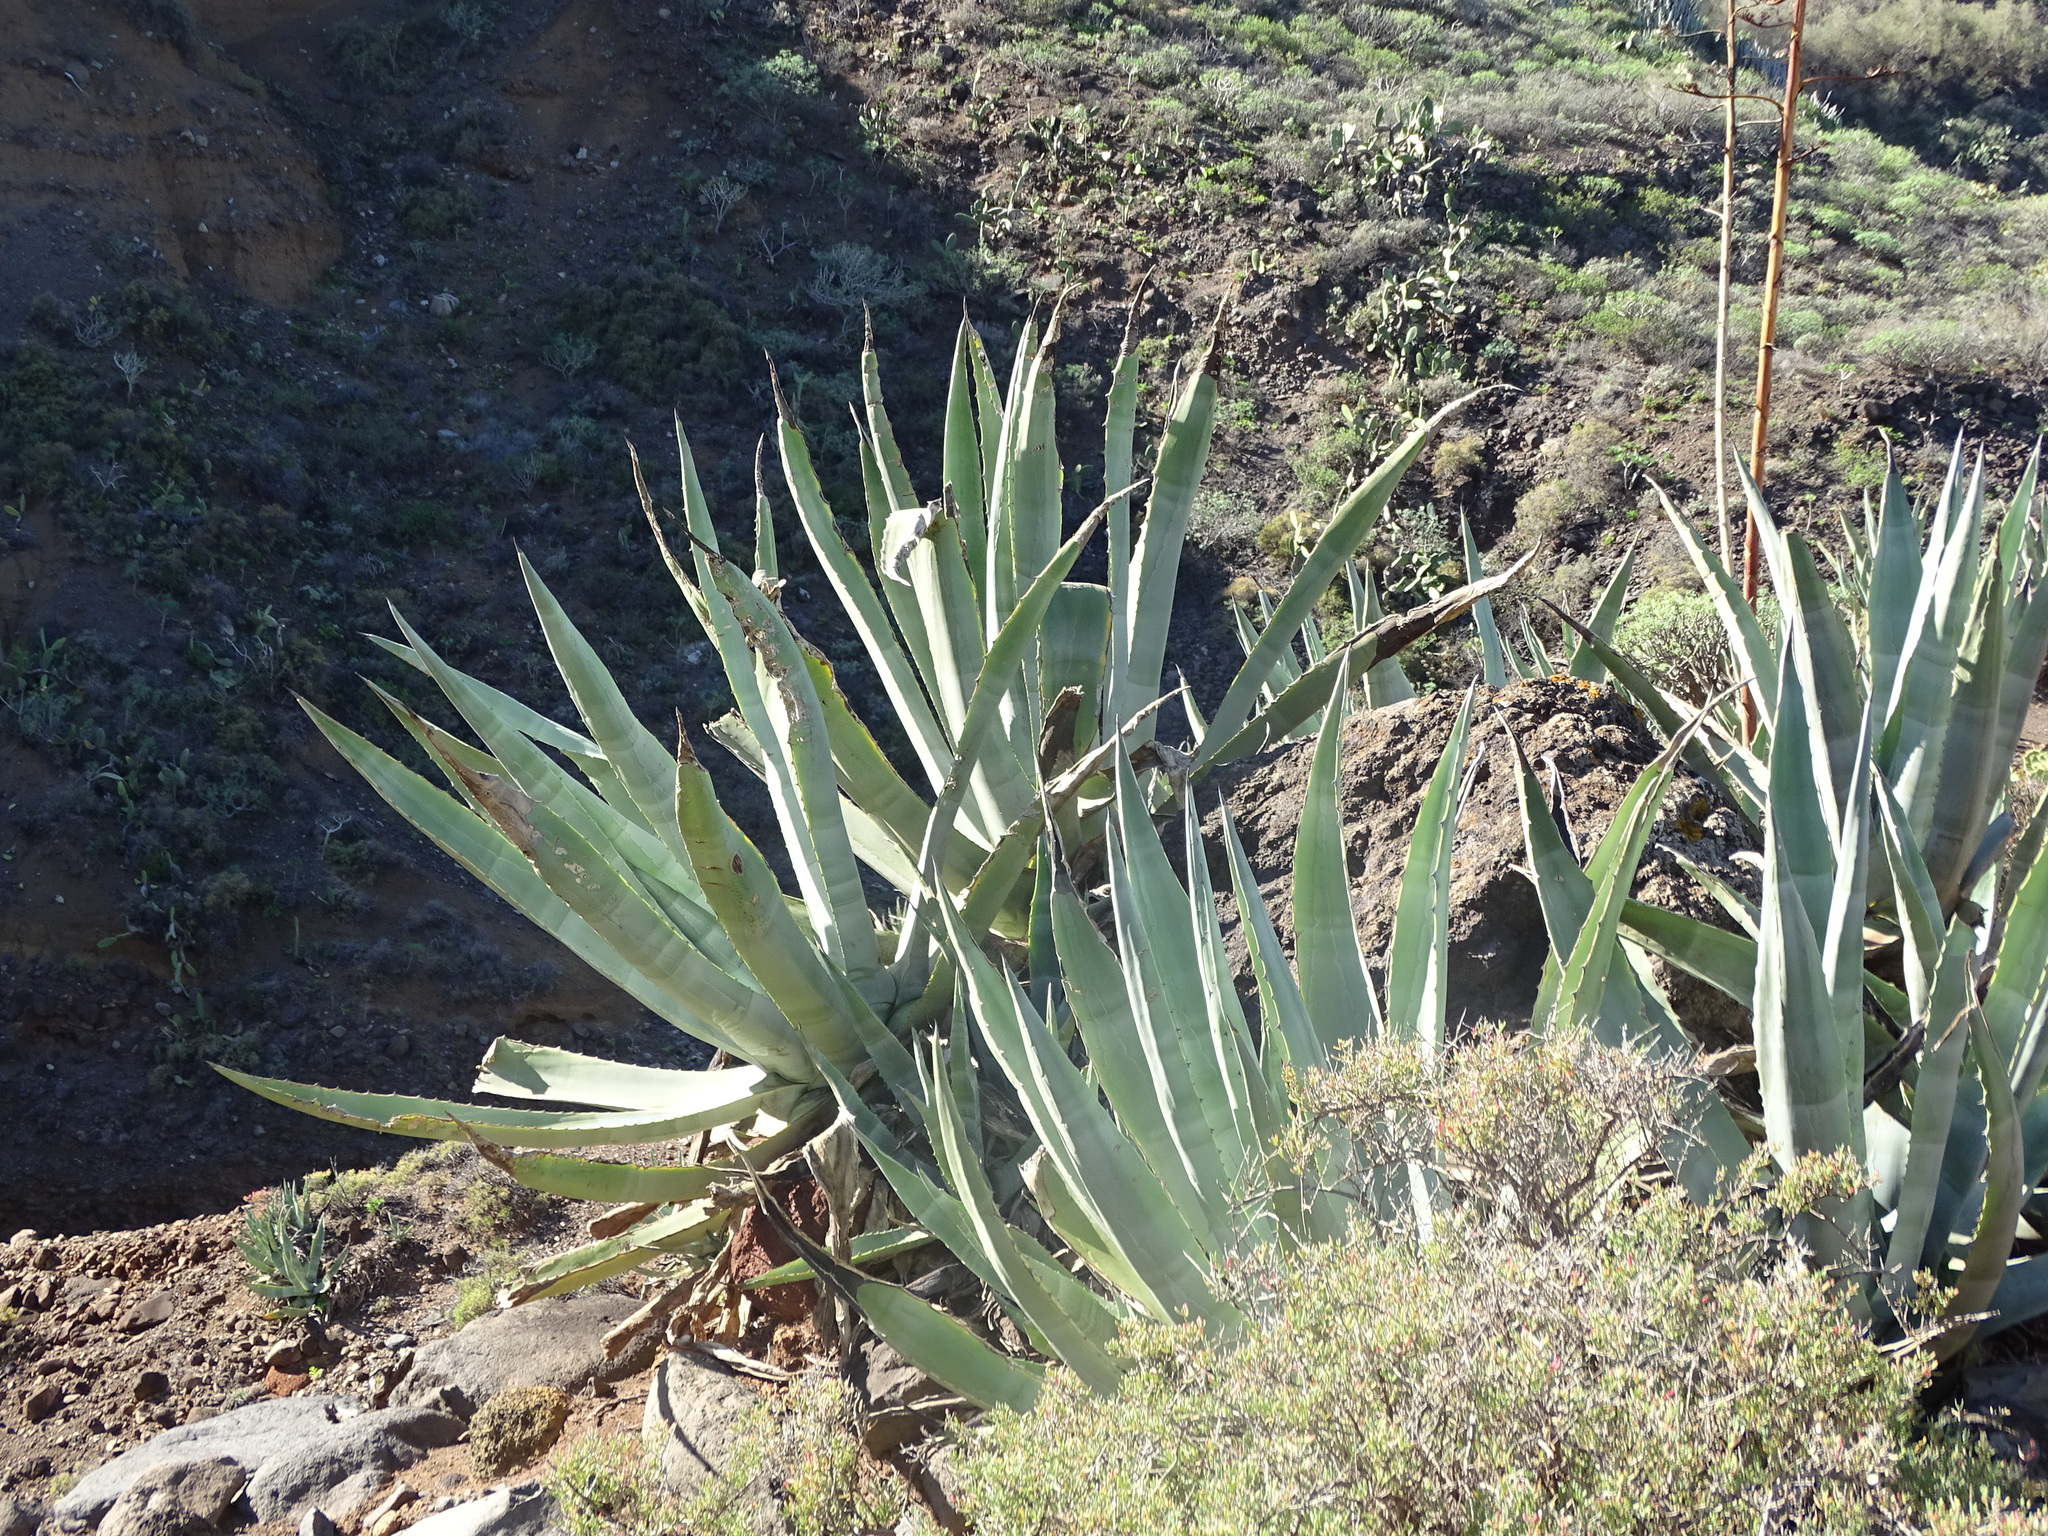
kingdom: Plantae
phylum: Tracheophyta
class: Liliopsida
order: Asparagales
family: Asparagaceae
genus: Agave
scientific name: Agave americana
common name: Centuryplant
